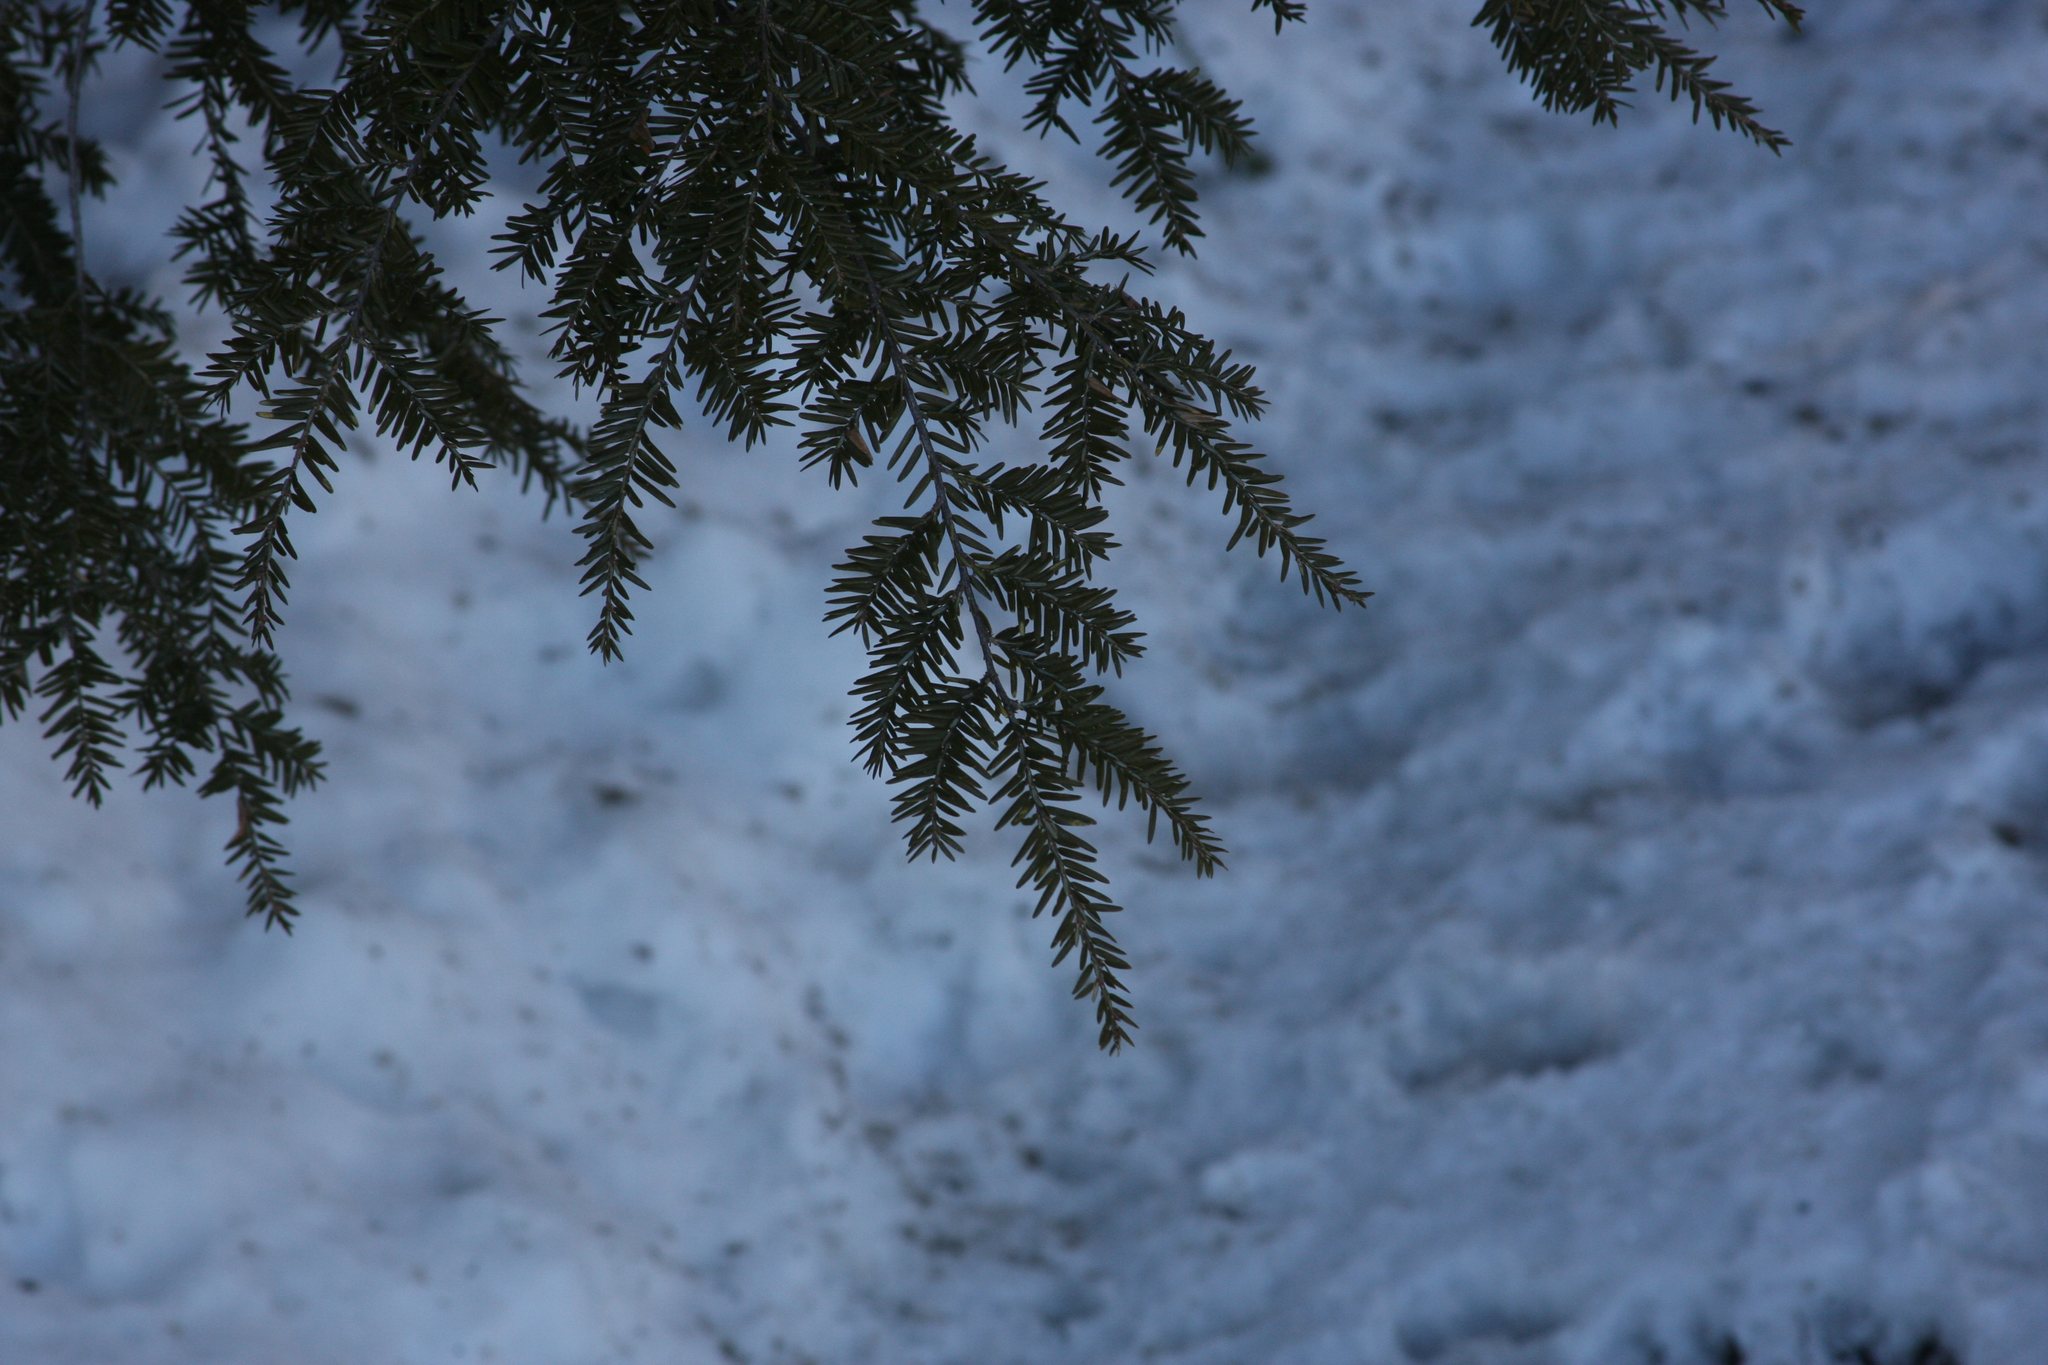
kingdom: Plantae
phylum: Tracheophyta
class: Pinopsida
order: Pinales
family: Pinaceae
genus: Tsuga
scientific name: Tsuga canadensis
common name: Eastern hemlock
